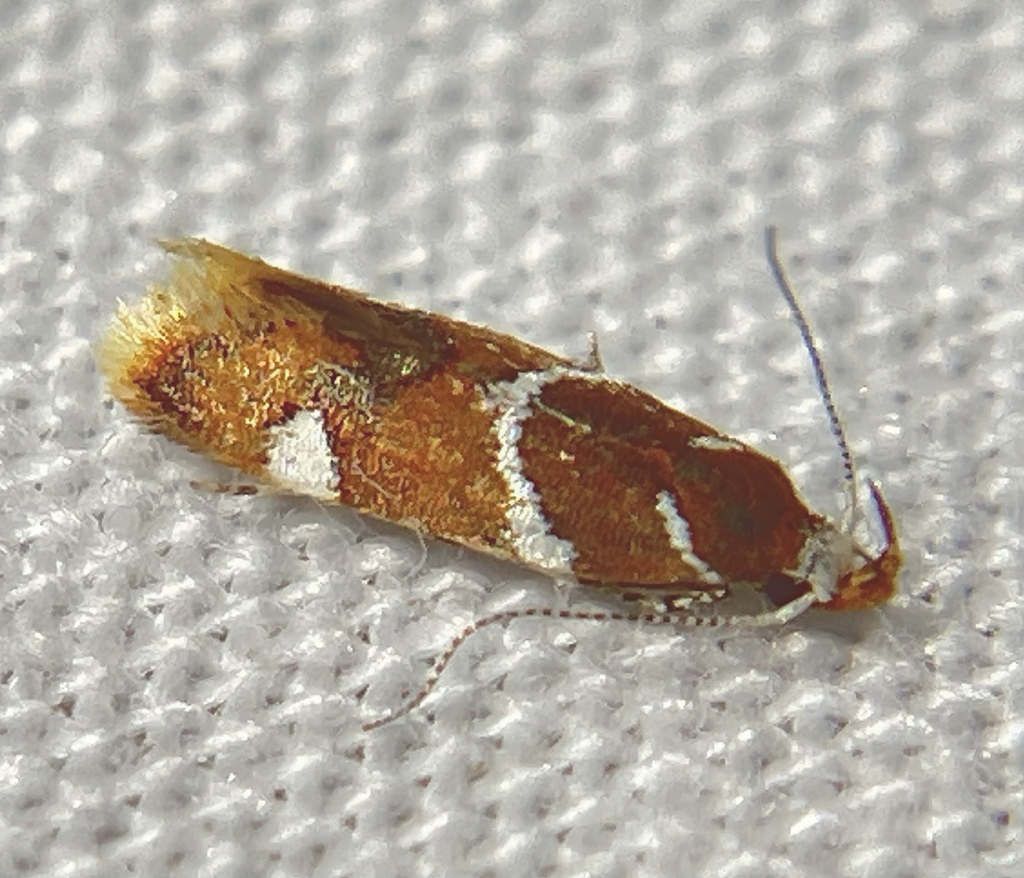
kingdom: Animalia
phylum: Arthropoda
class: Insecta
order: Lepidoptera
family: Oecophoridae
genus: Promalactis
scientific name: Promalactis suzukiella
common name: Moth
